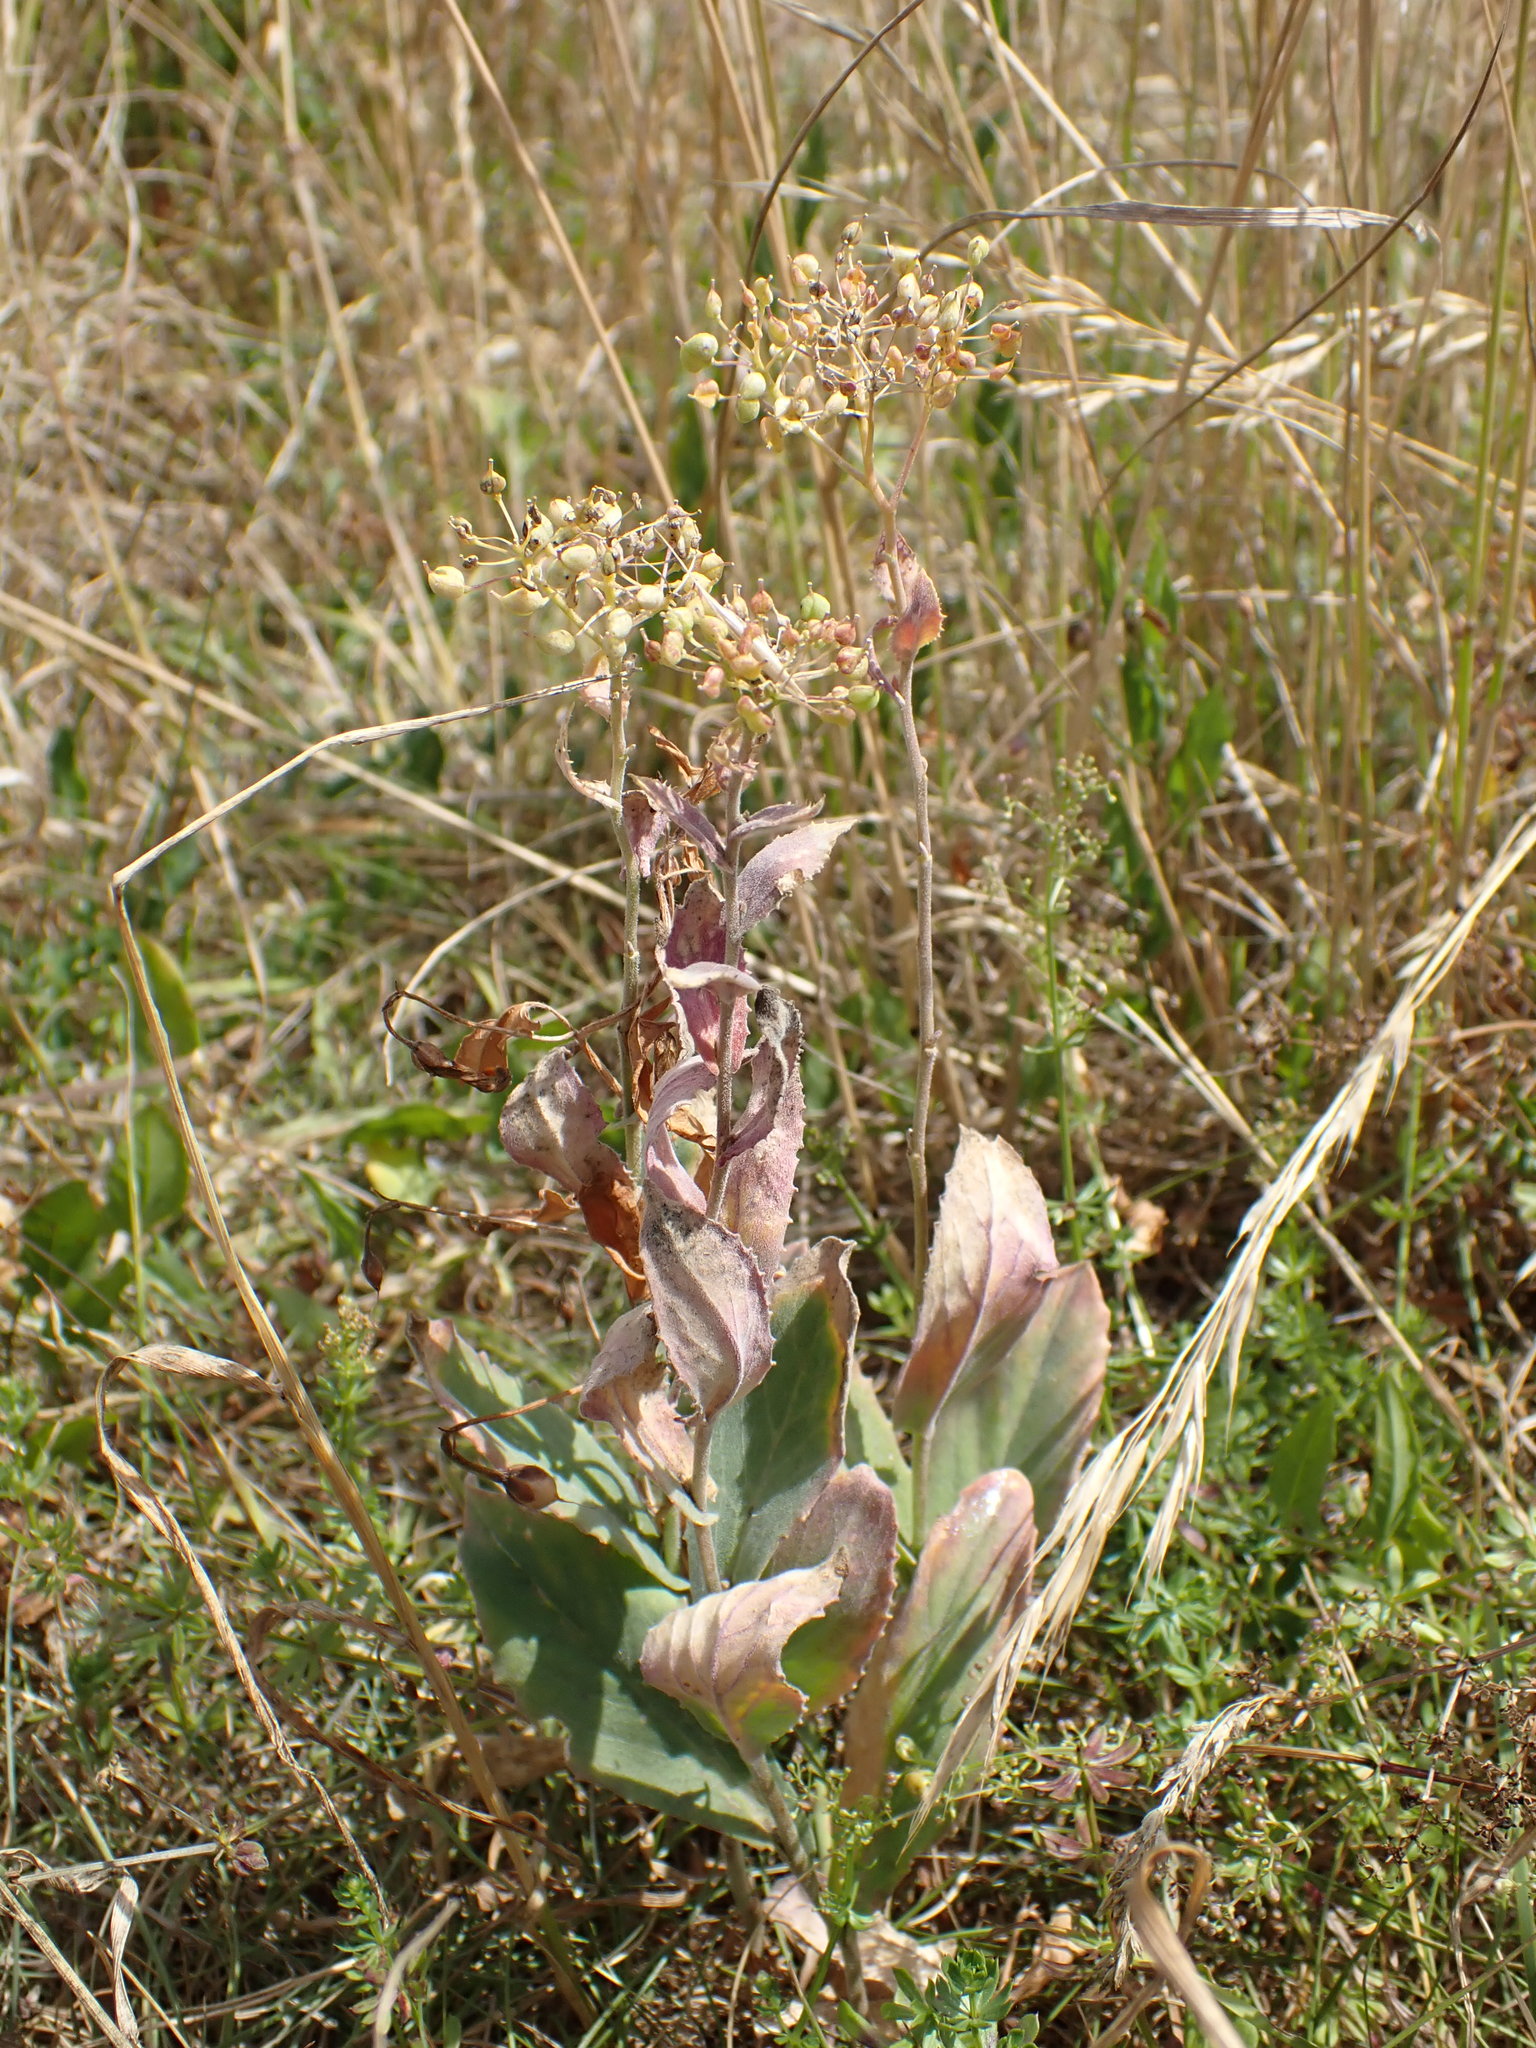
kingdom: Plantae
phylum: Tracheophyta
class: Magnoliopsida
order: Brassicales
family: Brassicaceae
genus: Lepidium
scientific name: Lepidium draba
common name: Hoary cress
